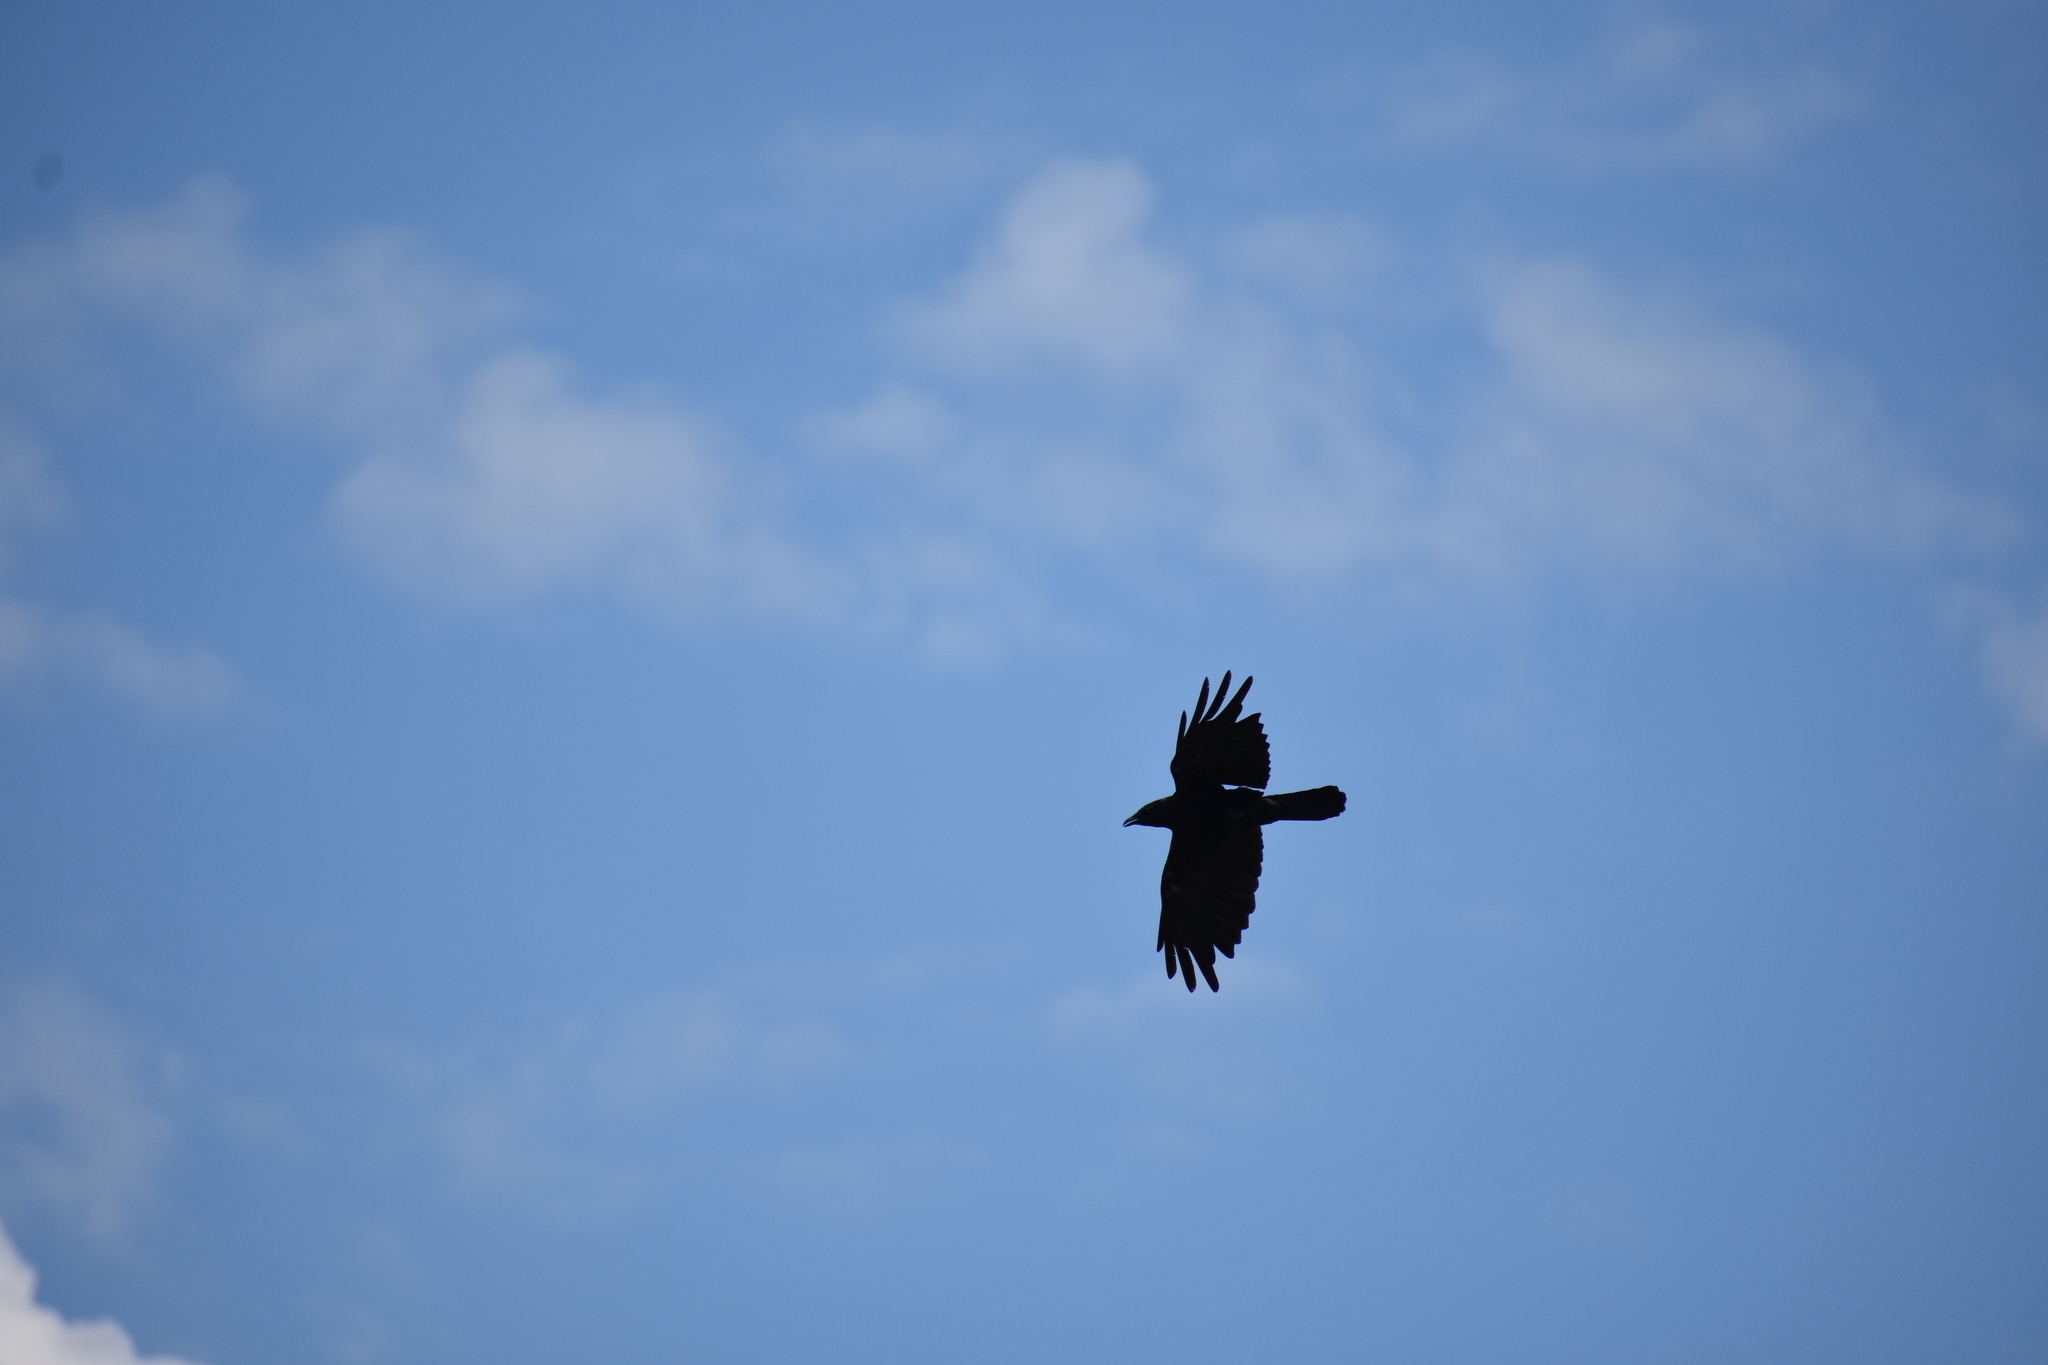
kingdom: Animalia
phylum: Chordata
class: Aves
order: Passeriformes
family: Corvidae
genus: Corvus
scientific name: Corvus brachyrhynchos
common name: American crow
